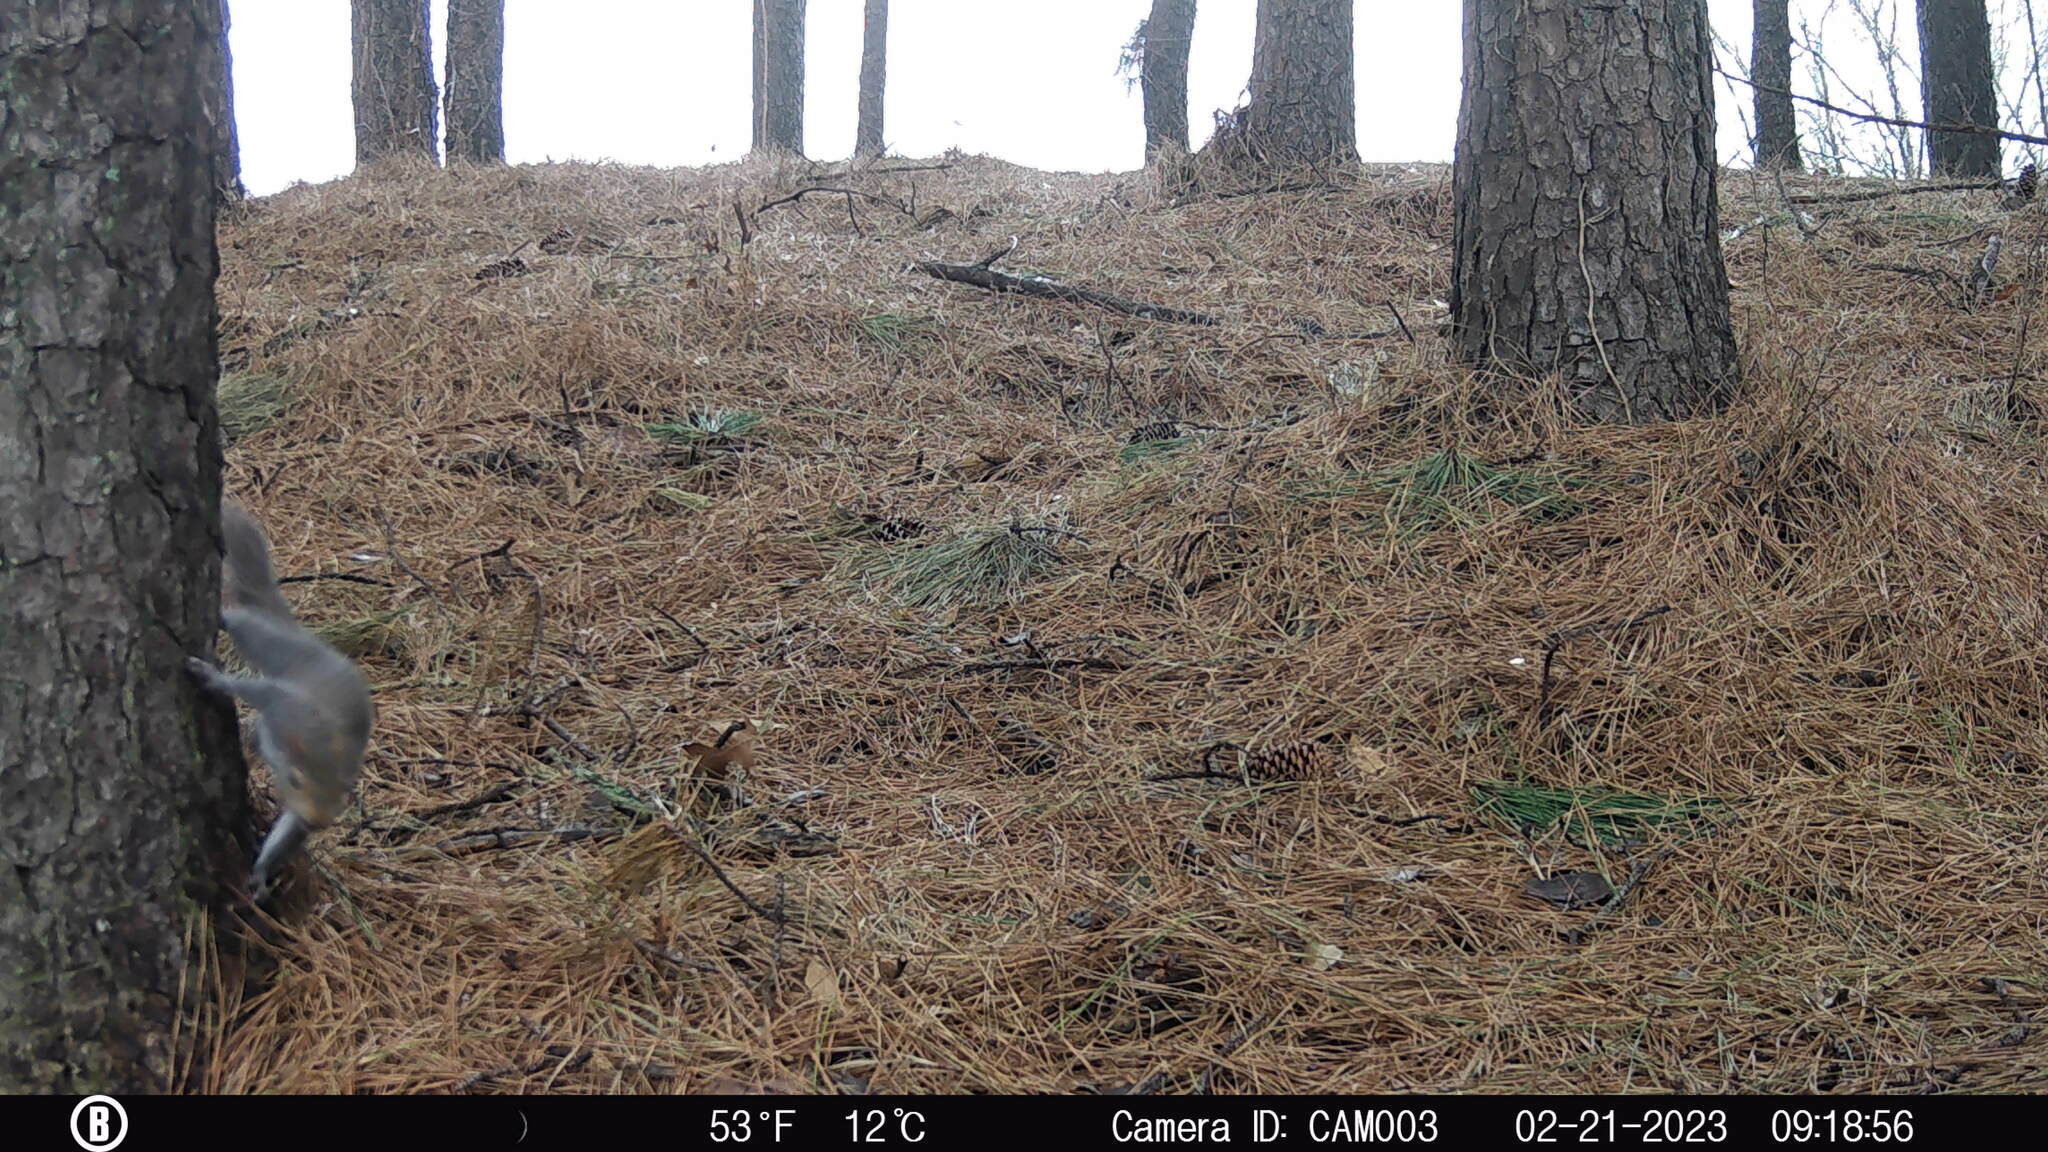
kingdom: Animalia
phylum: Chordata
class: Mammalia
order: Rodentia
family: Sciuridae
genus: Sciurus
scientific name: Sciurus carolinensis
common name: Eastern gray squirrel
